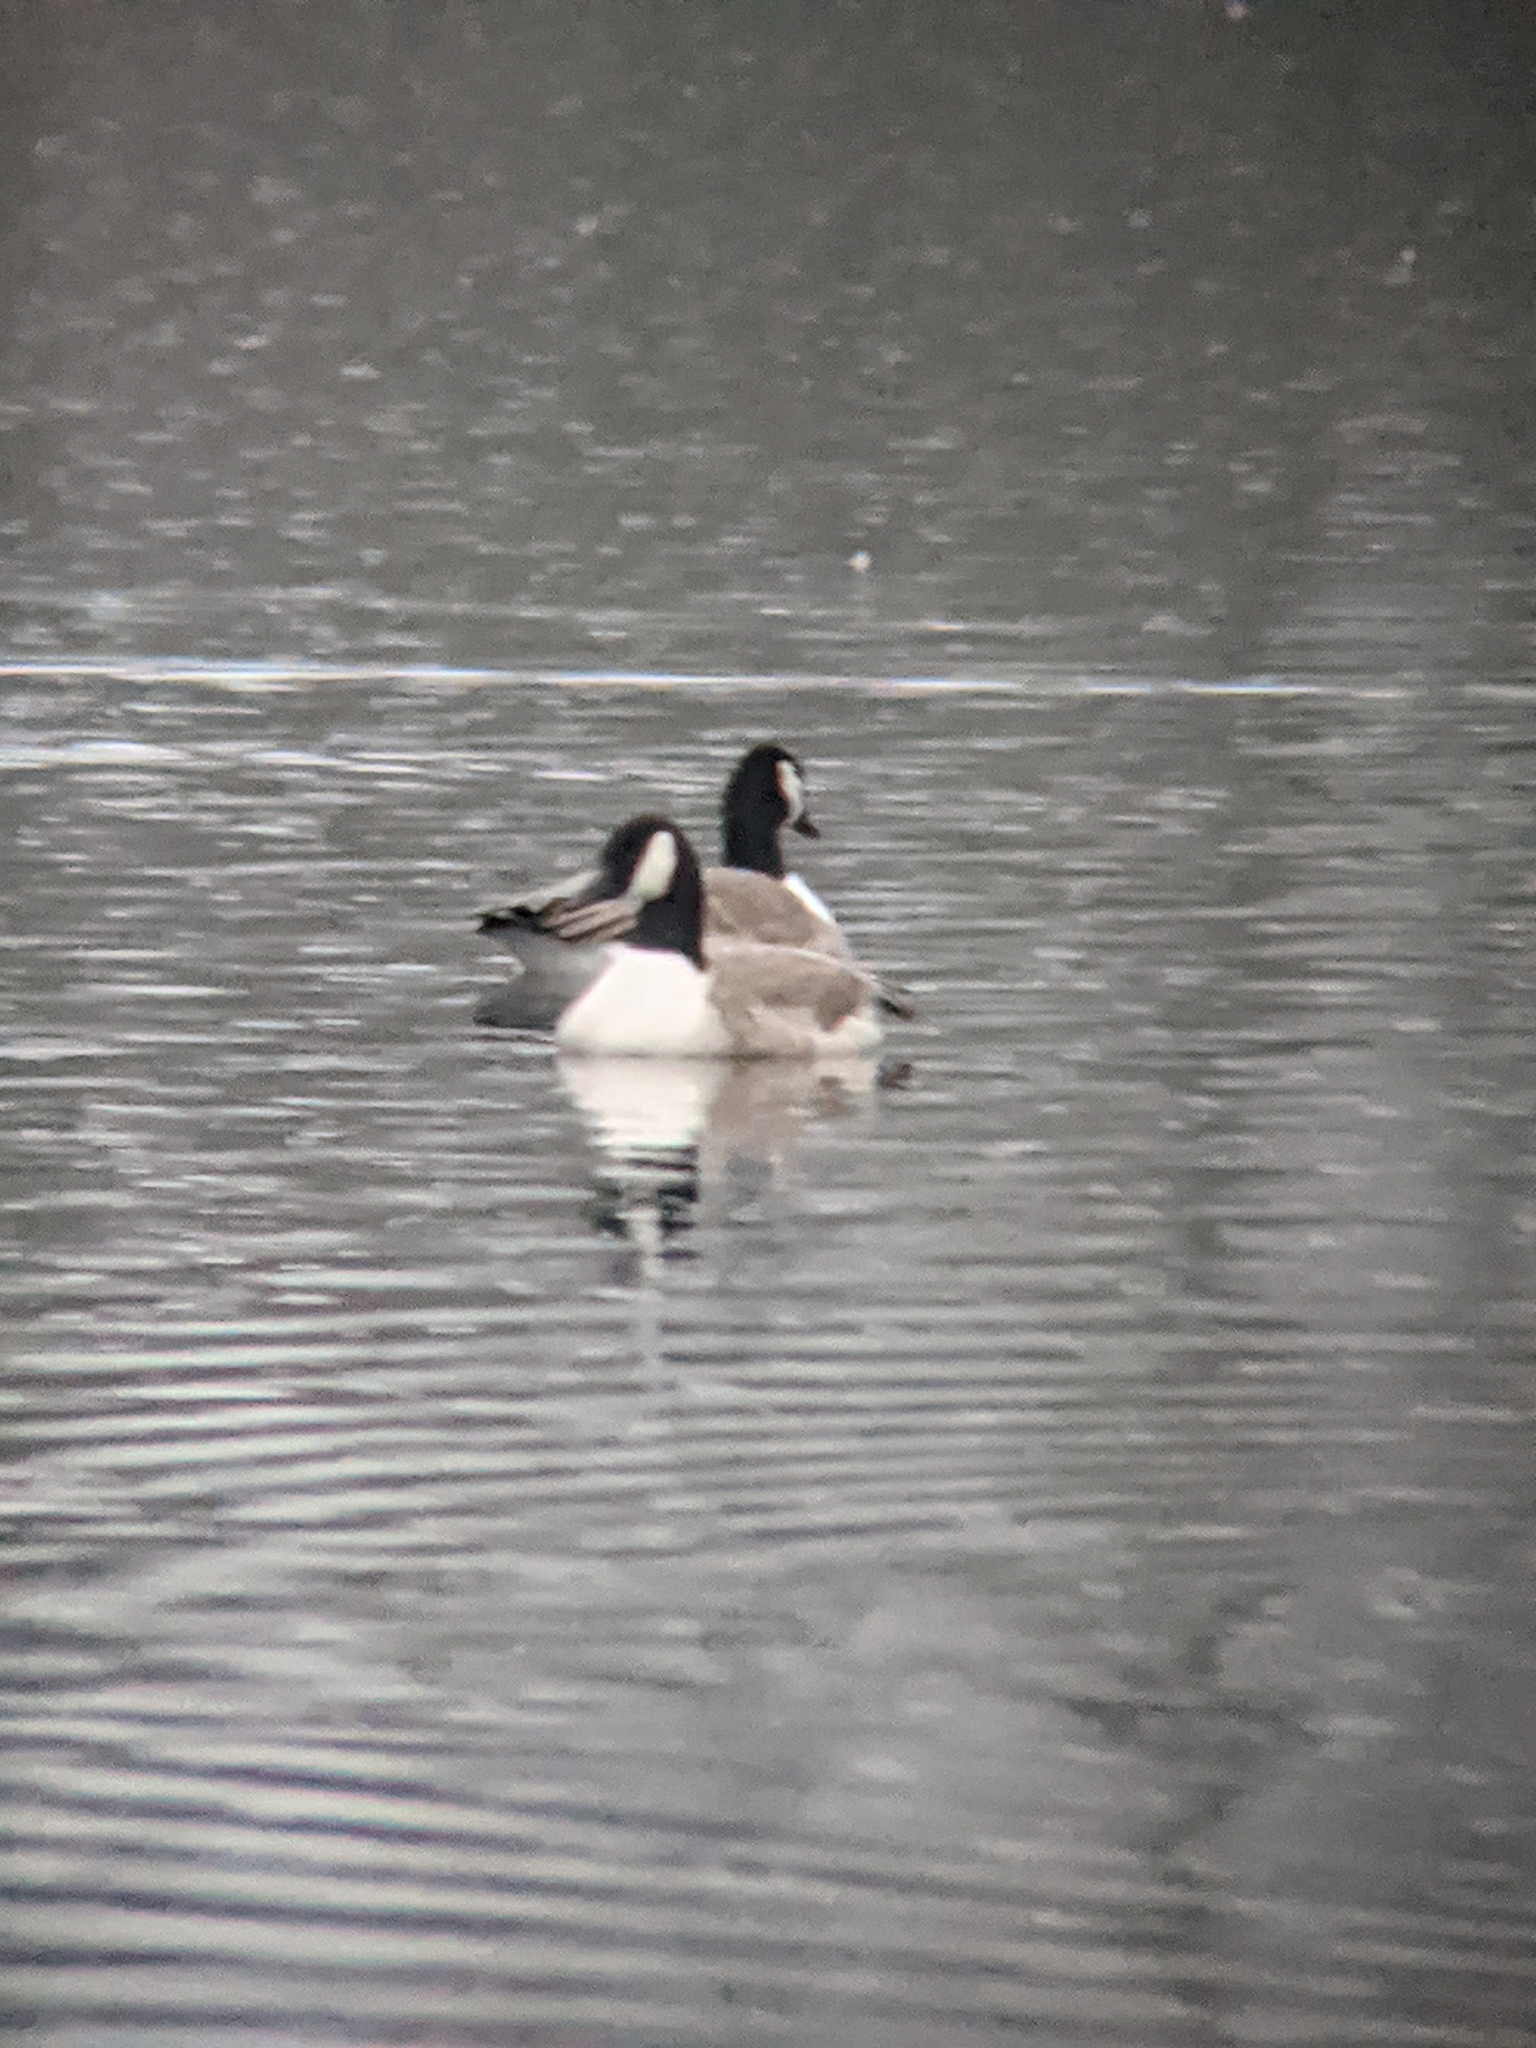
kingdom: Animalia
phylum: Chordata
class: Aves
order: Anseriformes
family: Anatidae
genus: Branta
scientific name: Branta canadensis
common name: Canada goose
